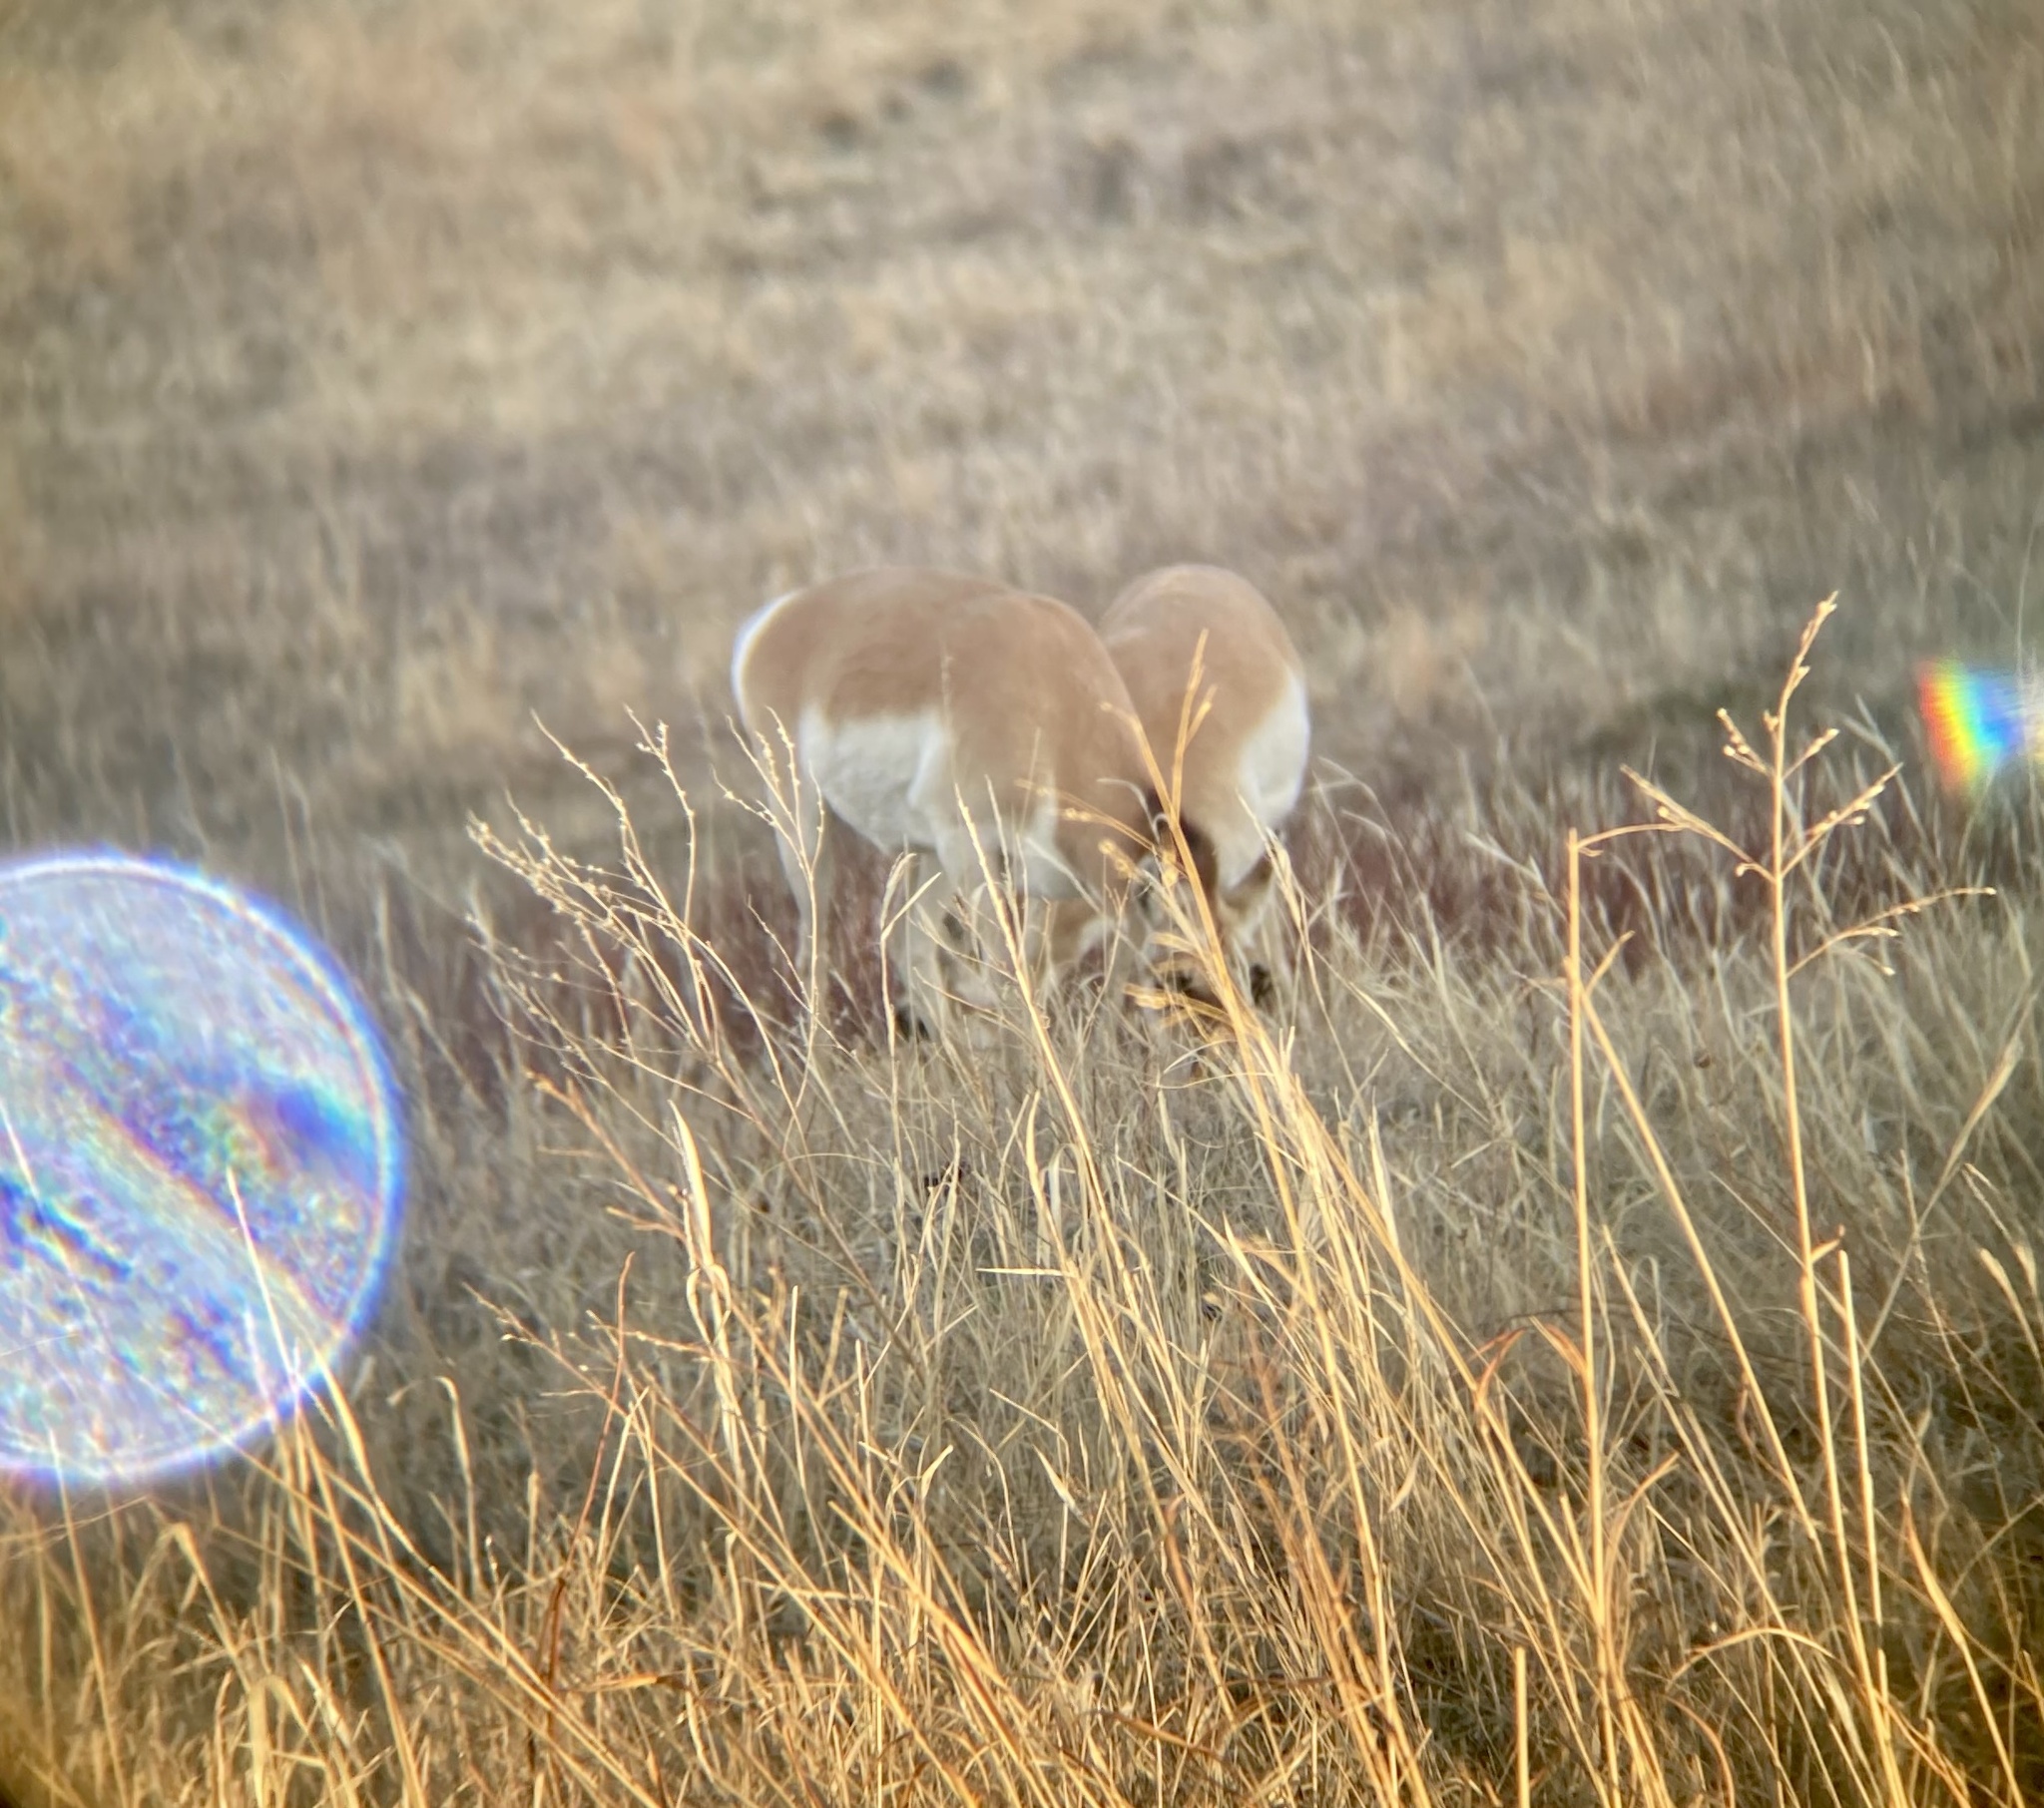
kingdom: Animalia
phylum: Chordata
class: Mammalia
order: Artiodactyla
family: Antilocapridae
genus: Antilocapra
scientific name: Antilocapra americana
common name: Pronghorn
